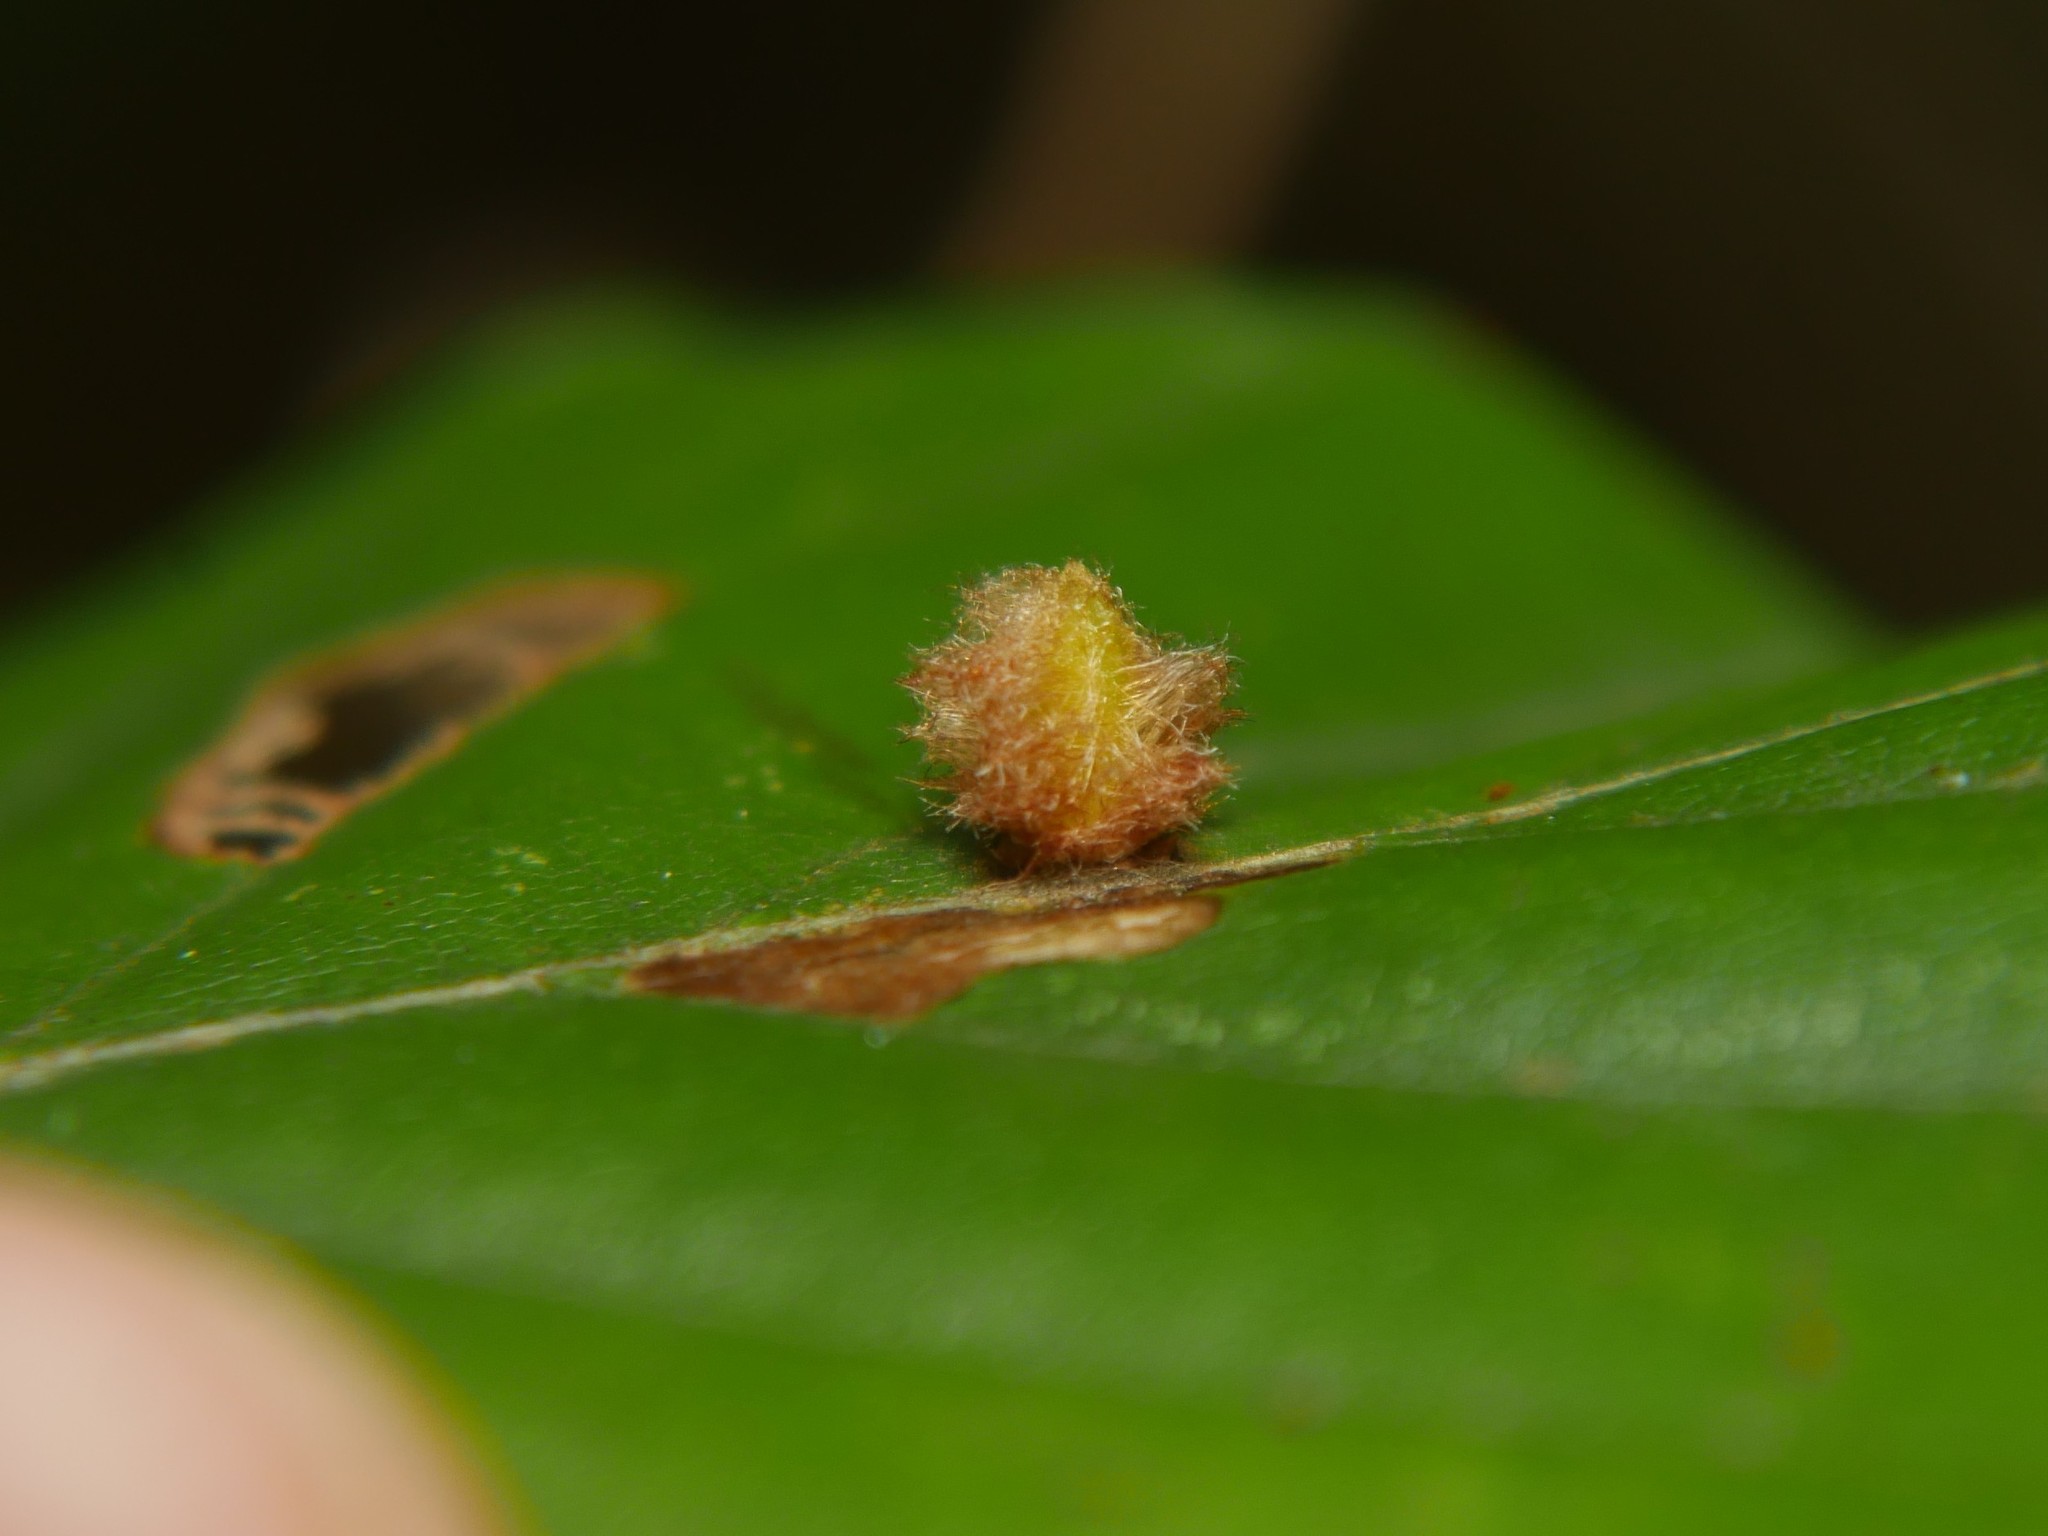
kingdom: Animalia
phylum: Arthropoda
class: Insecta
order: Diptera
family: Cecidomyiidae
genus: Hartigiola
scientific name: Hartigiola annulipes
